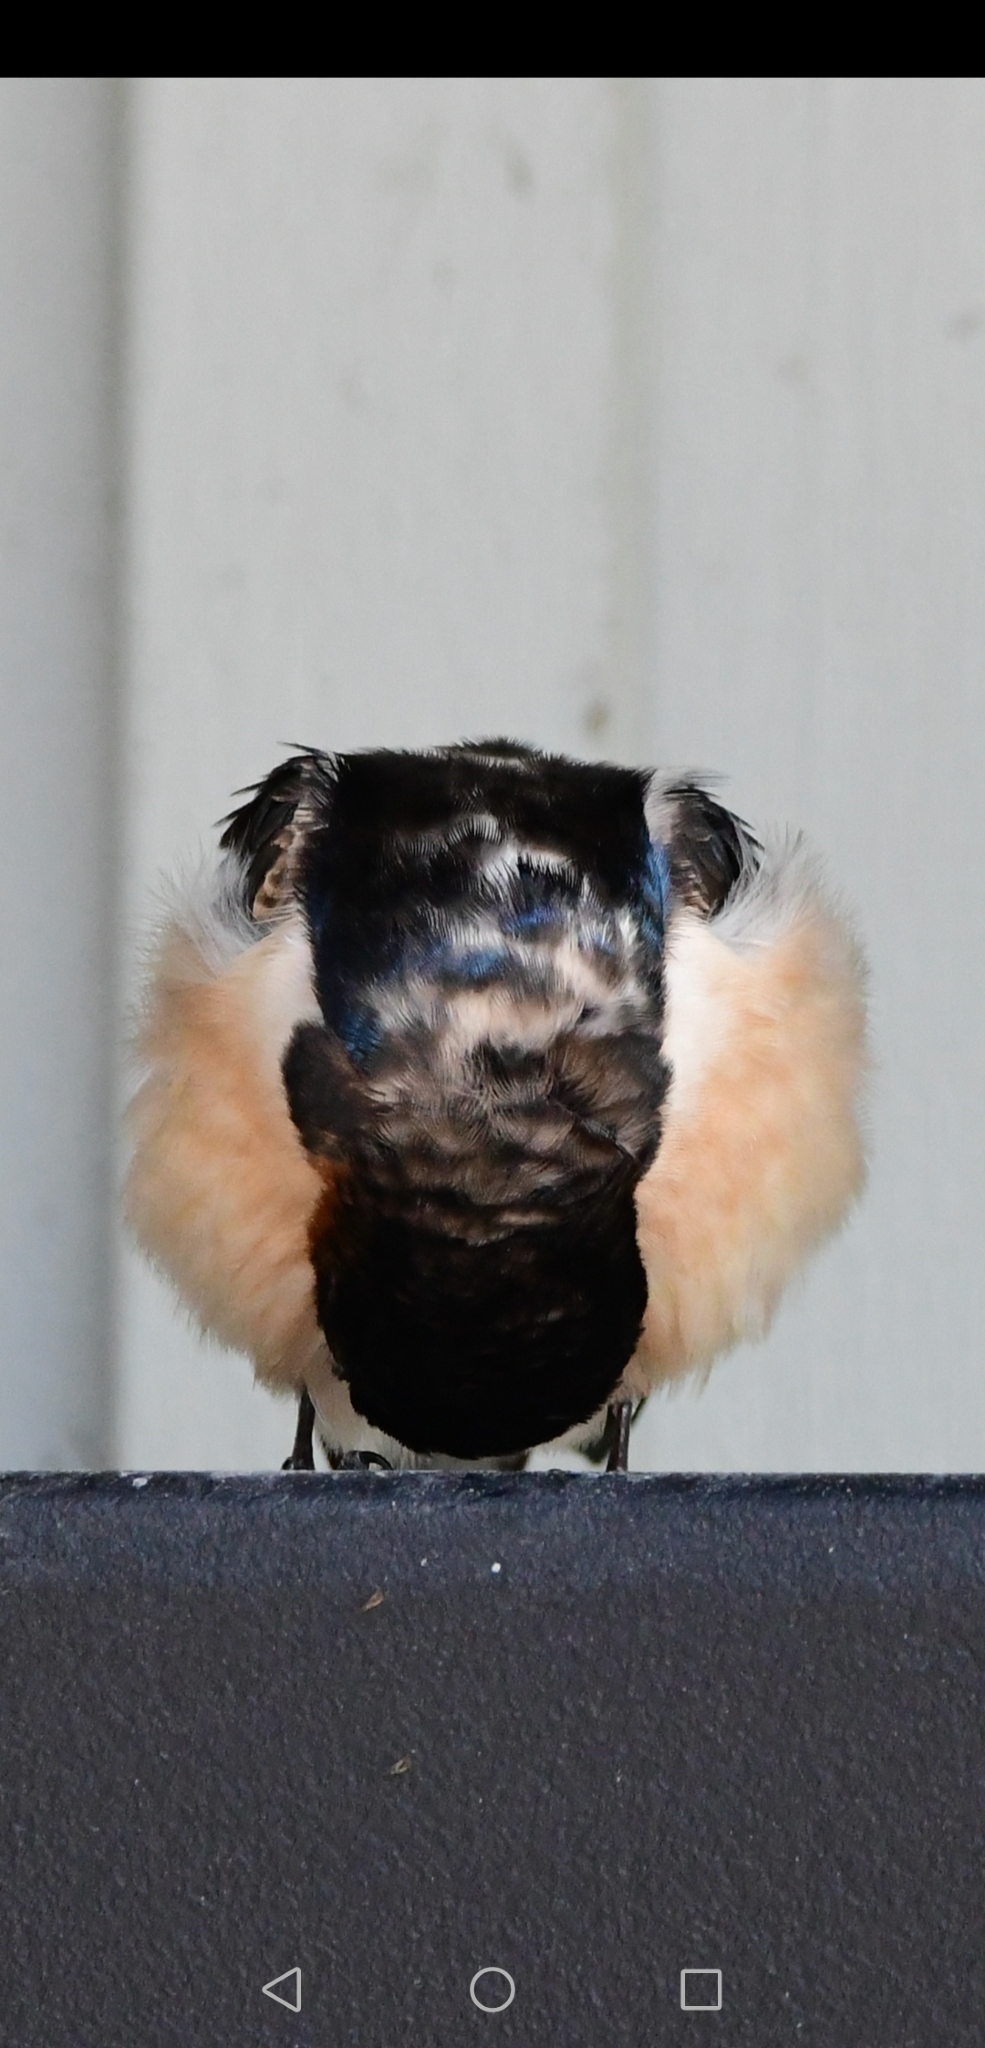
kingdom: Animalia
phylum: Chordata
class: Aves
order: Passeriformes
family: Hirundinidae
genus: Hirundo
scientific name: Hirundo rustica
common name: Barn swallow
